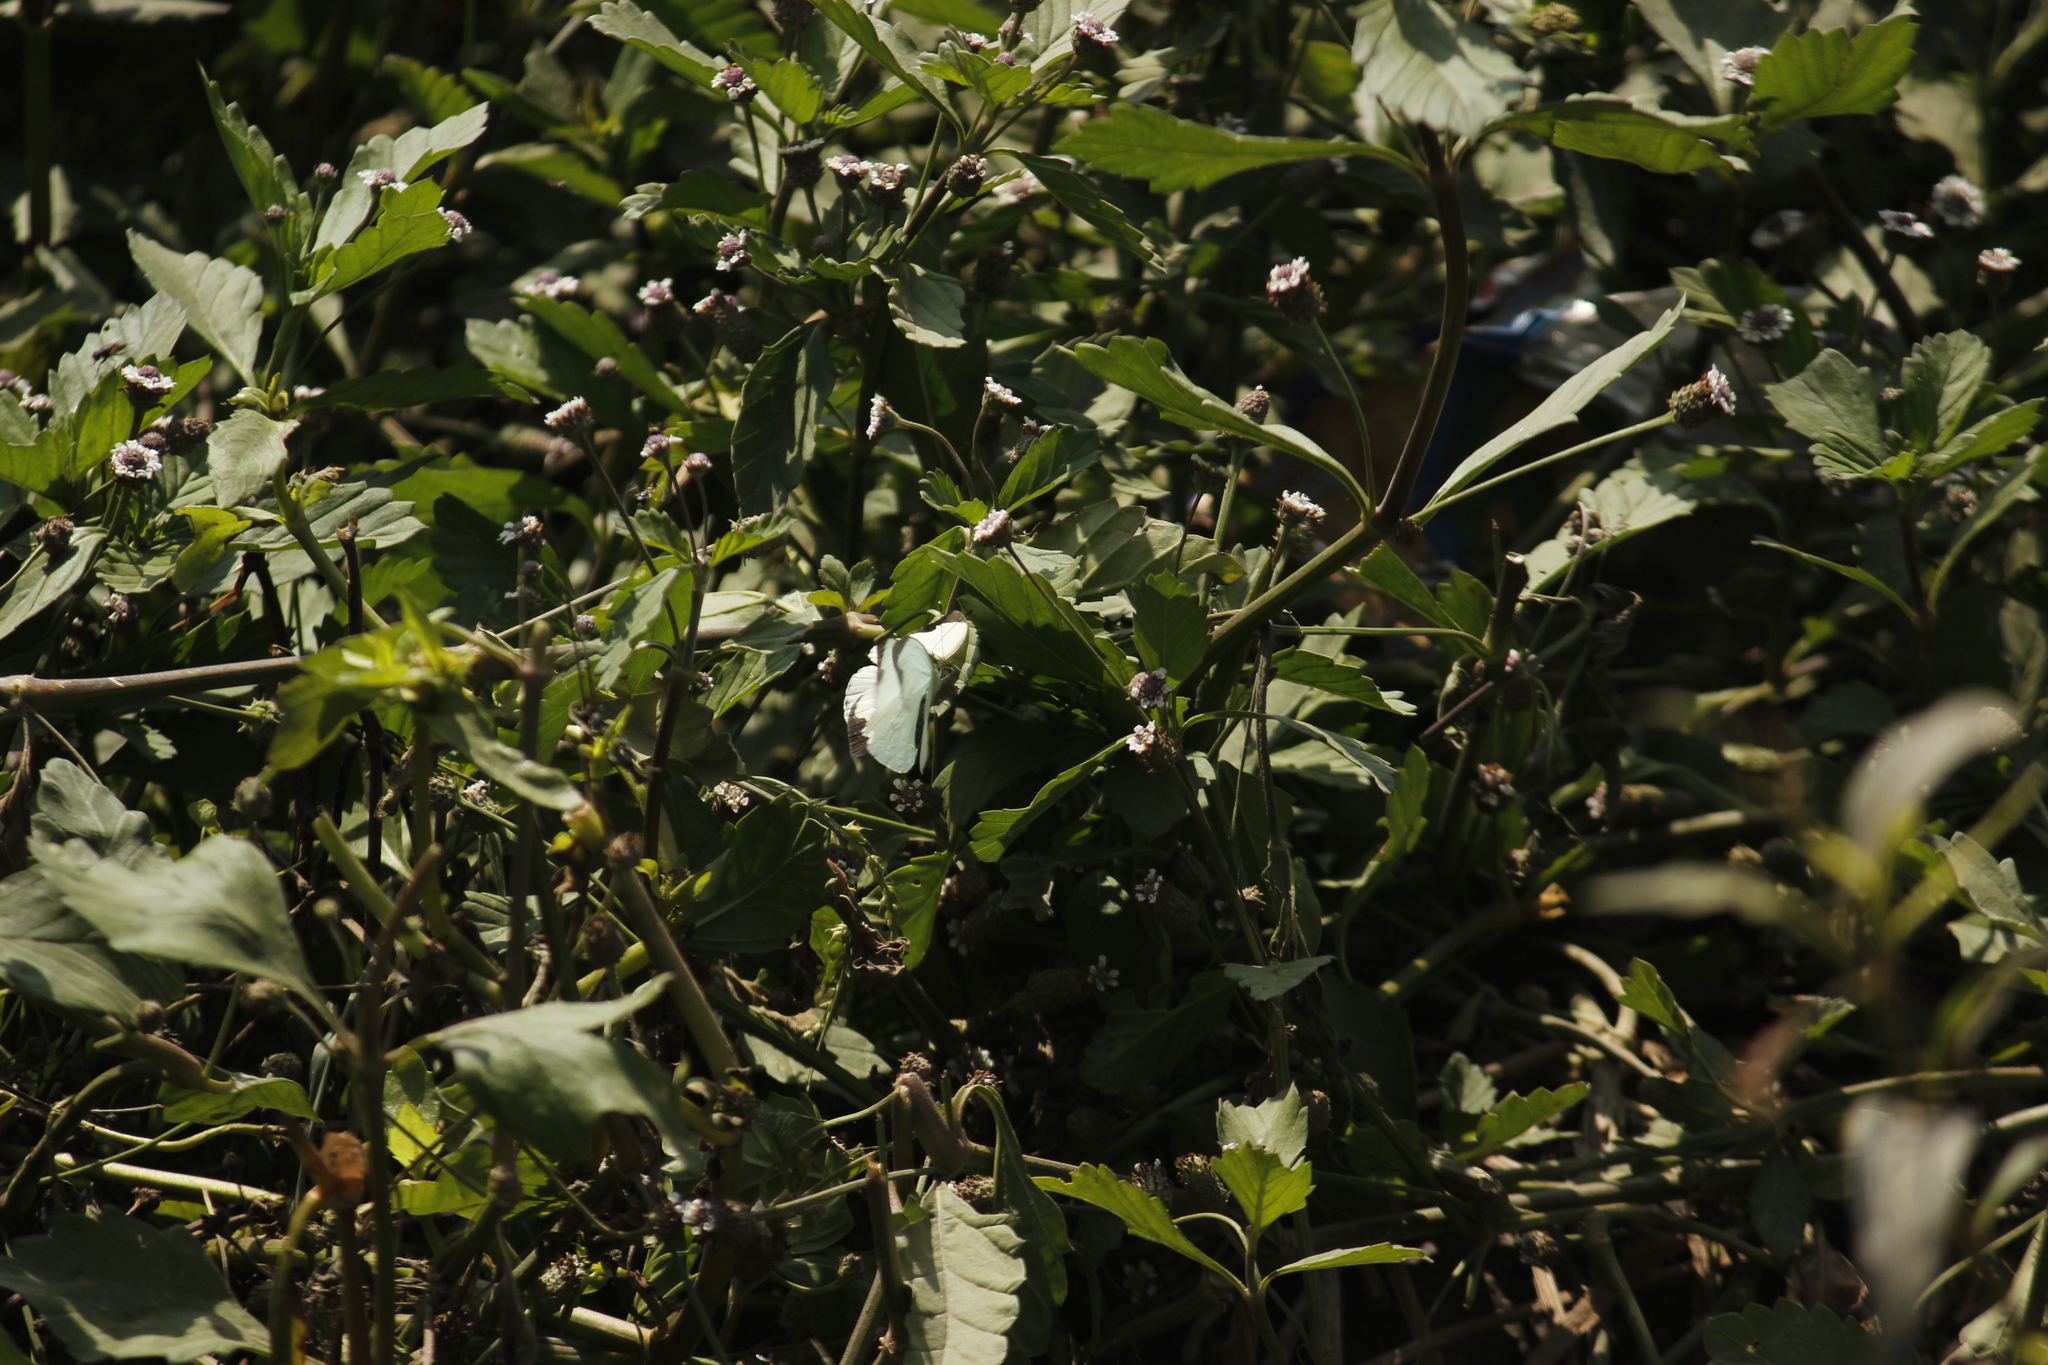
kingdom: Animalia
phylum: Arthropoda
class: Insecta
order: Lepidoptera
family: Pieridae
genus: Leptophobia
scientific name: Leptophobia aripa
